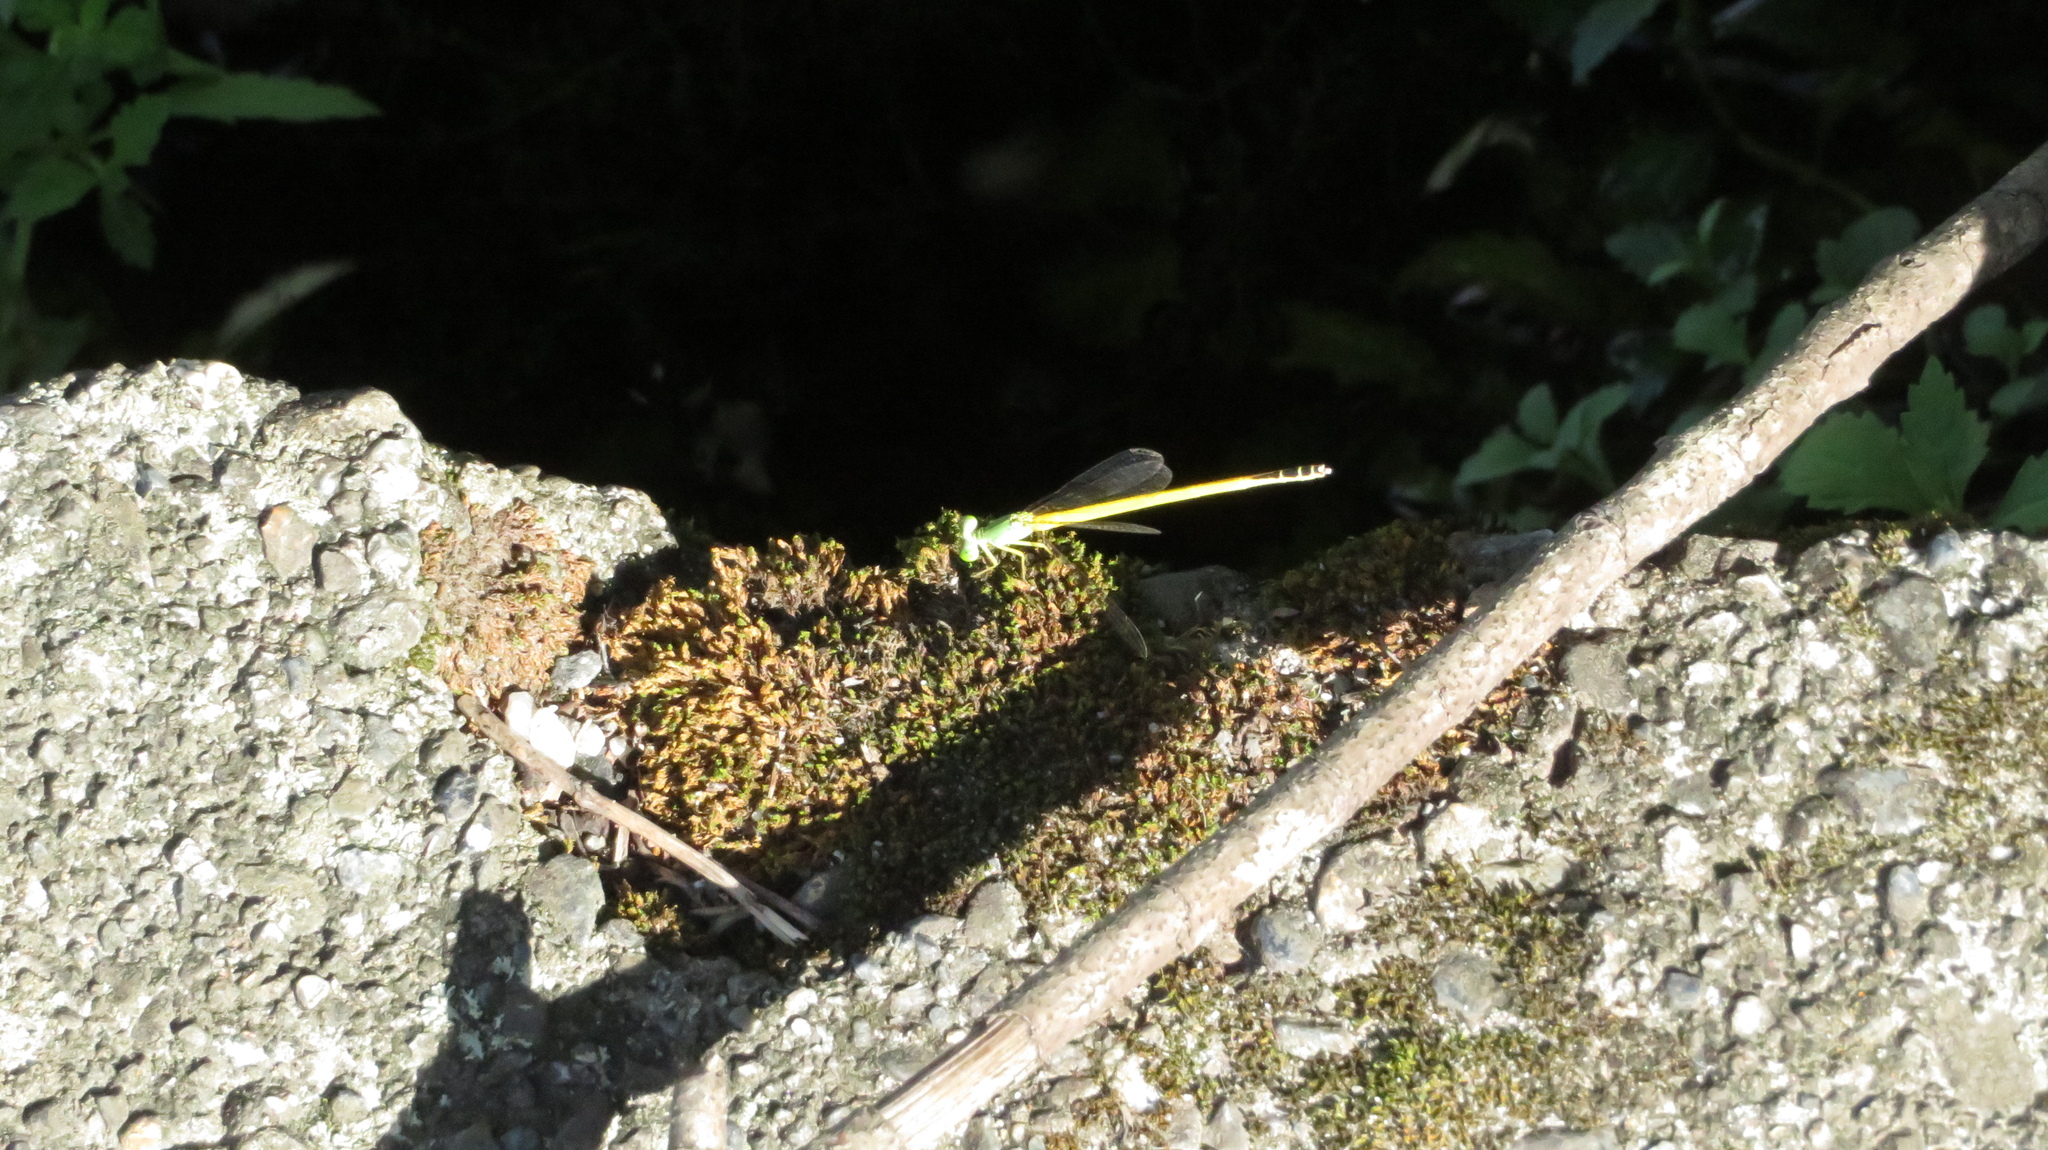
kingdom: Animalia
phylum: Arthropoda
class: Insecta
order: Odonata
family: Coenagrionidae
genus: Ceriagrion
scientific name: Ceriagrion melanurum
